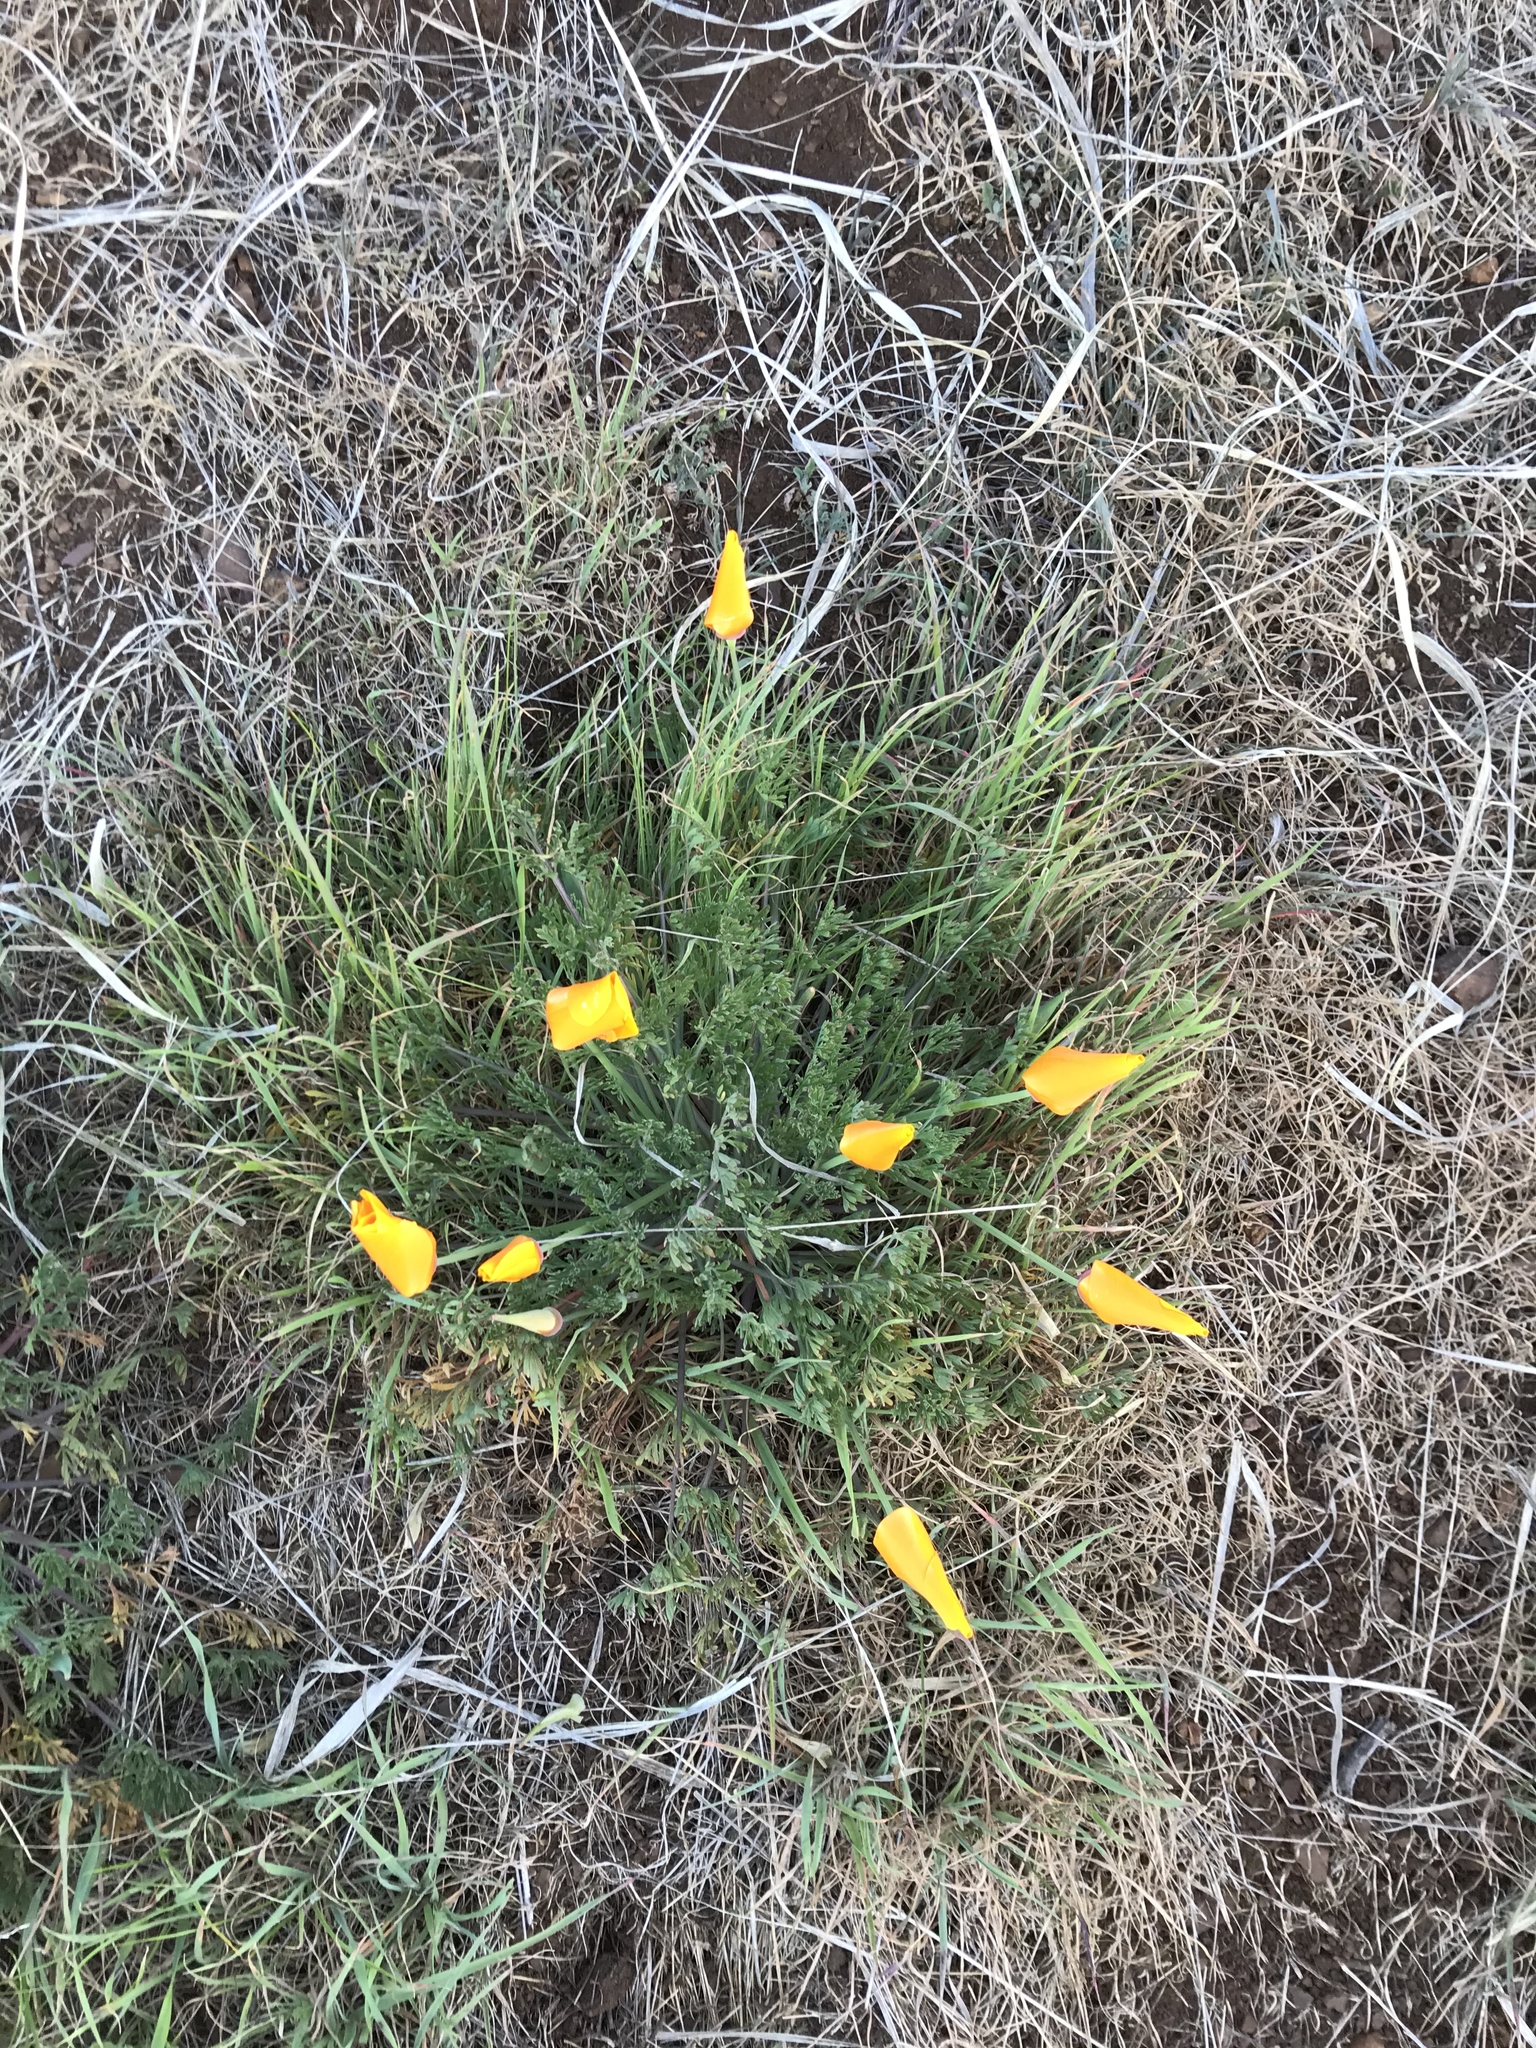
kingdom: Plantae
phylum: Tracheophyta
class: Magnoliopsida
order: Ranunculales
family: Papaveraceae
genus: Eschscholzia
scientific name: Eschscholzia californica
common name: California poppy
